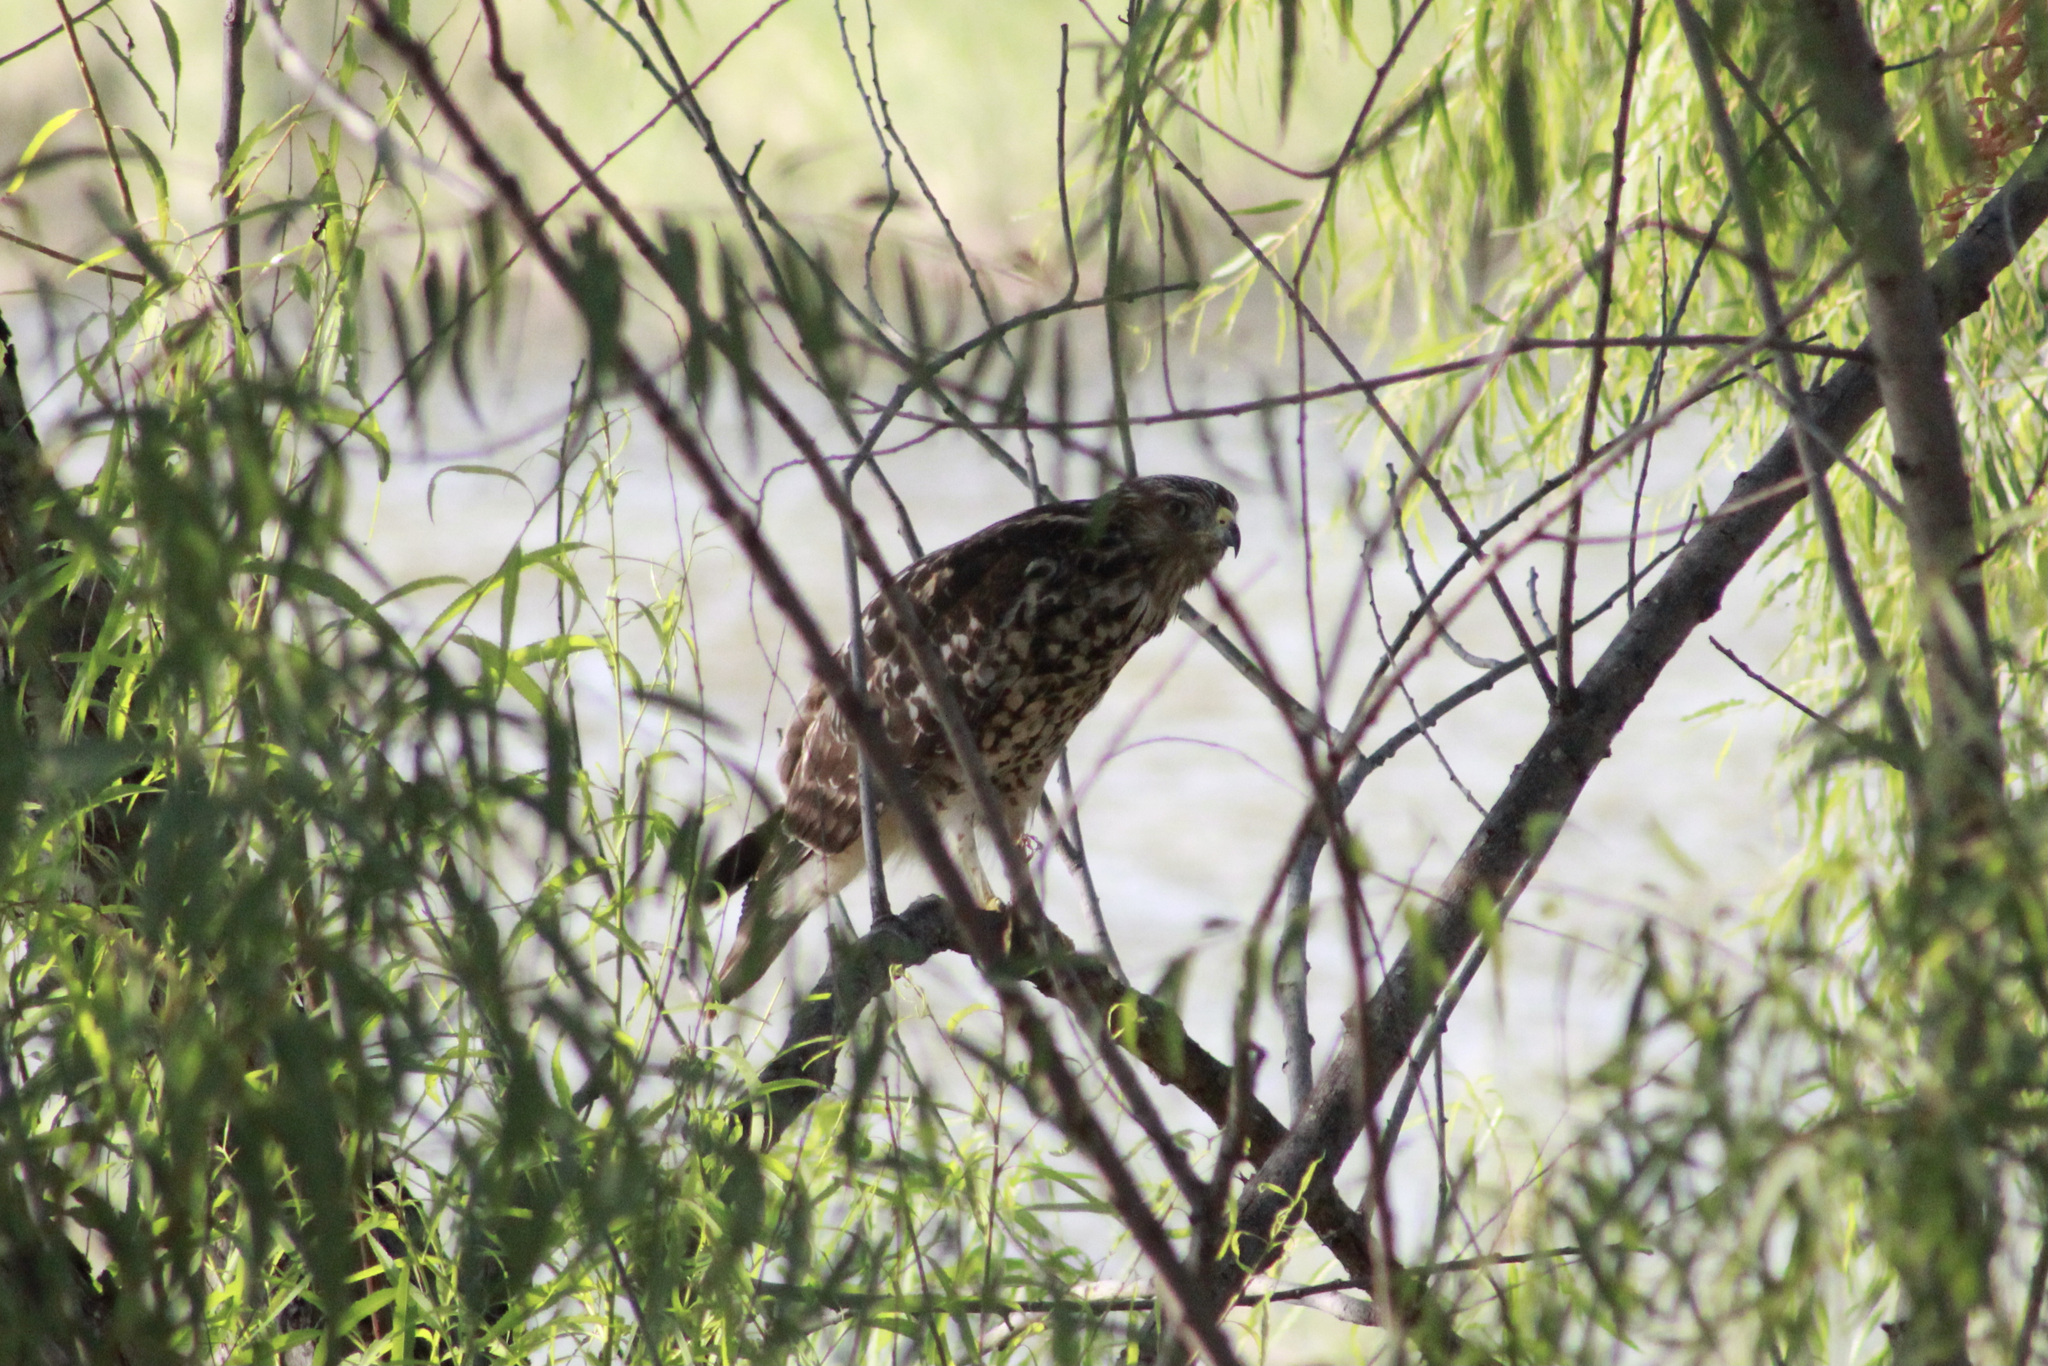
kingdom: Animalia
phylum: Chordata
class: Aves
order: Accipitriformes
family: Accipitridae
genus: Buteo
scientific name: Buteo lineatus
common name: Red-shouldered hawk
